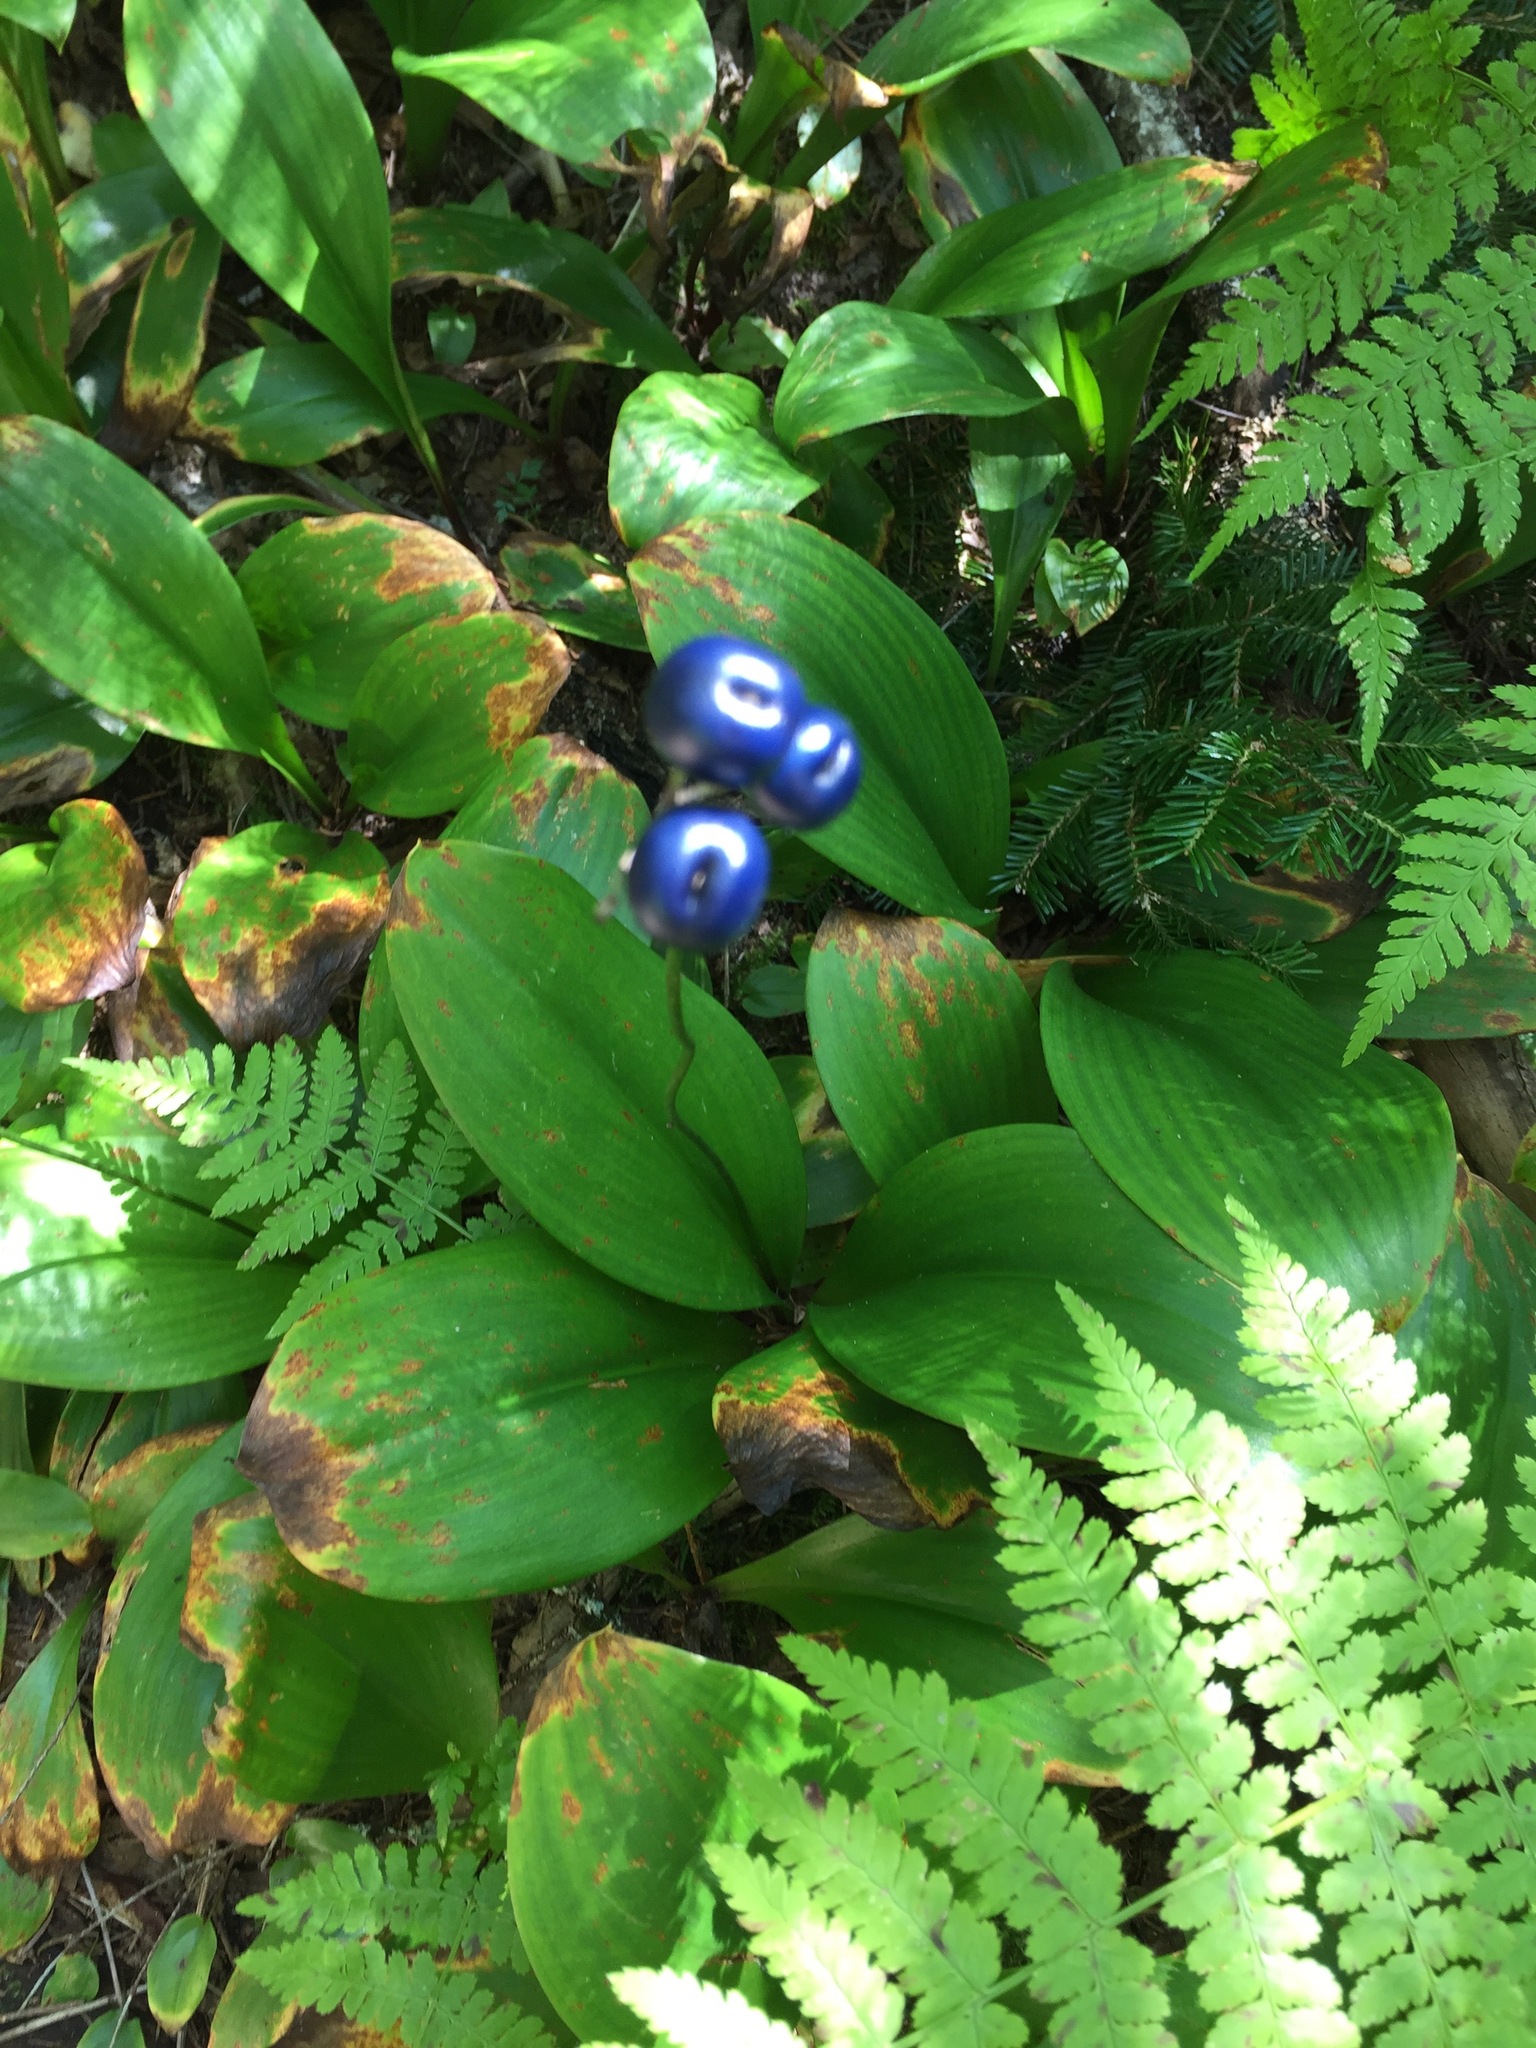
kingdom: Plantae
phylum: Tracheophyta
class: Liliopsida
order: Liliales
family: Liliaceae
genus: Clintonia
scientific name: Clintonia borealis
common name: Yellow clintonia
